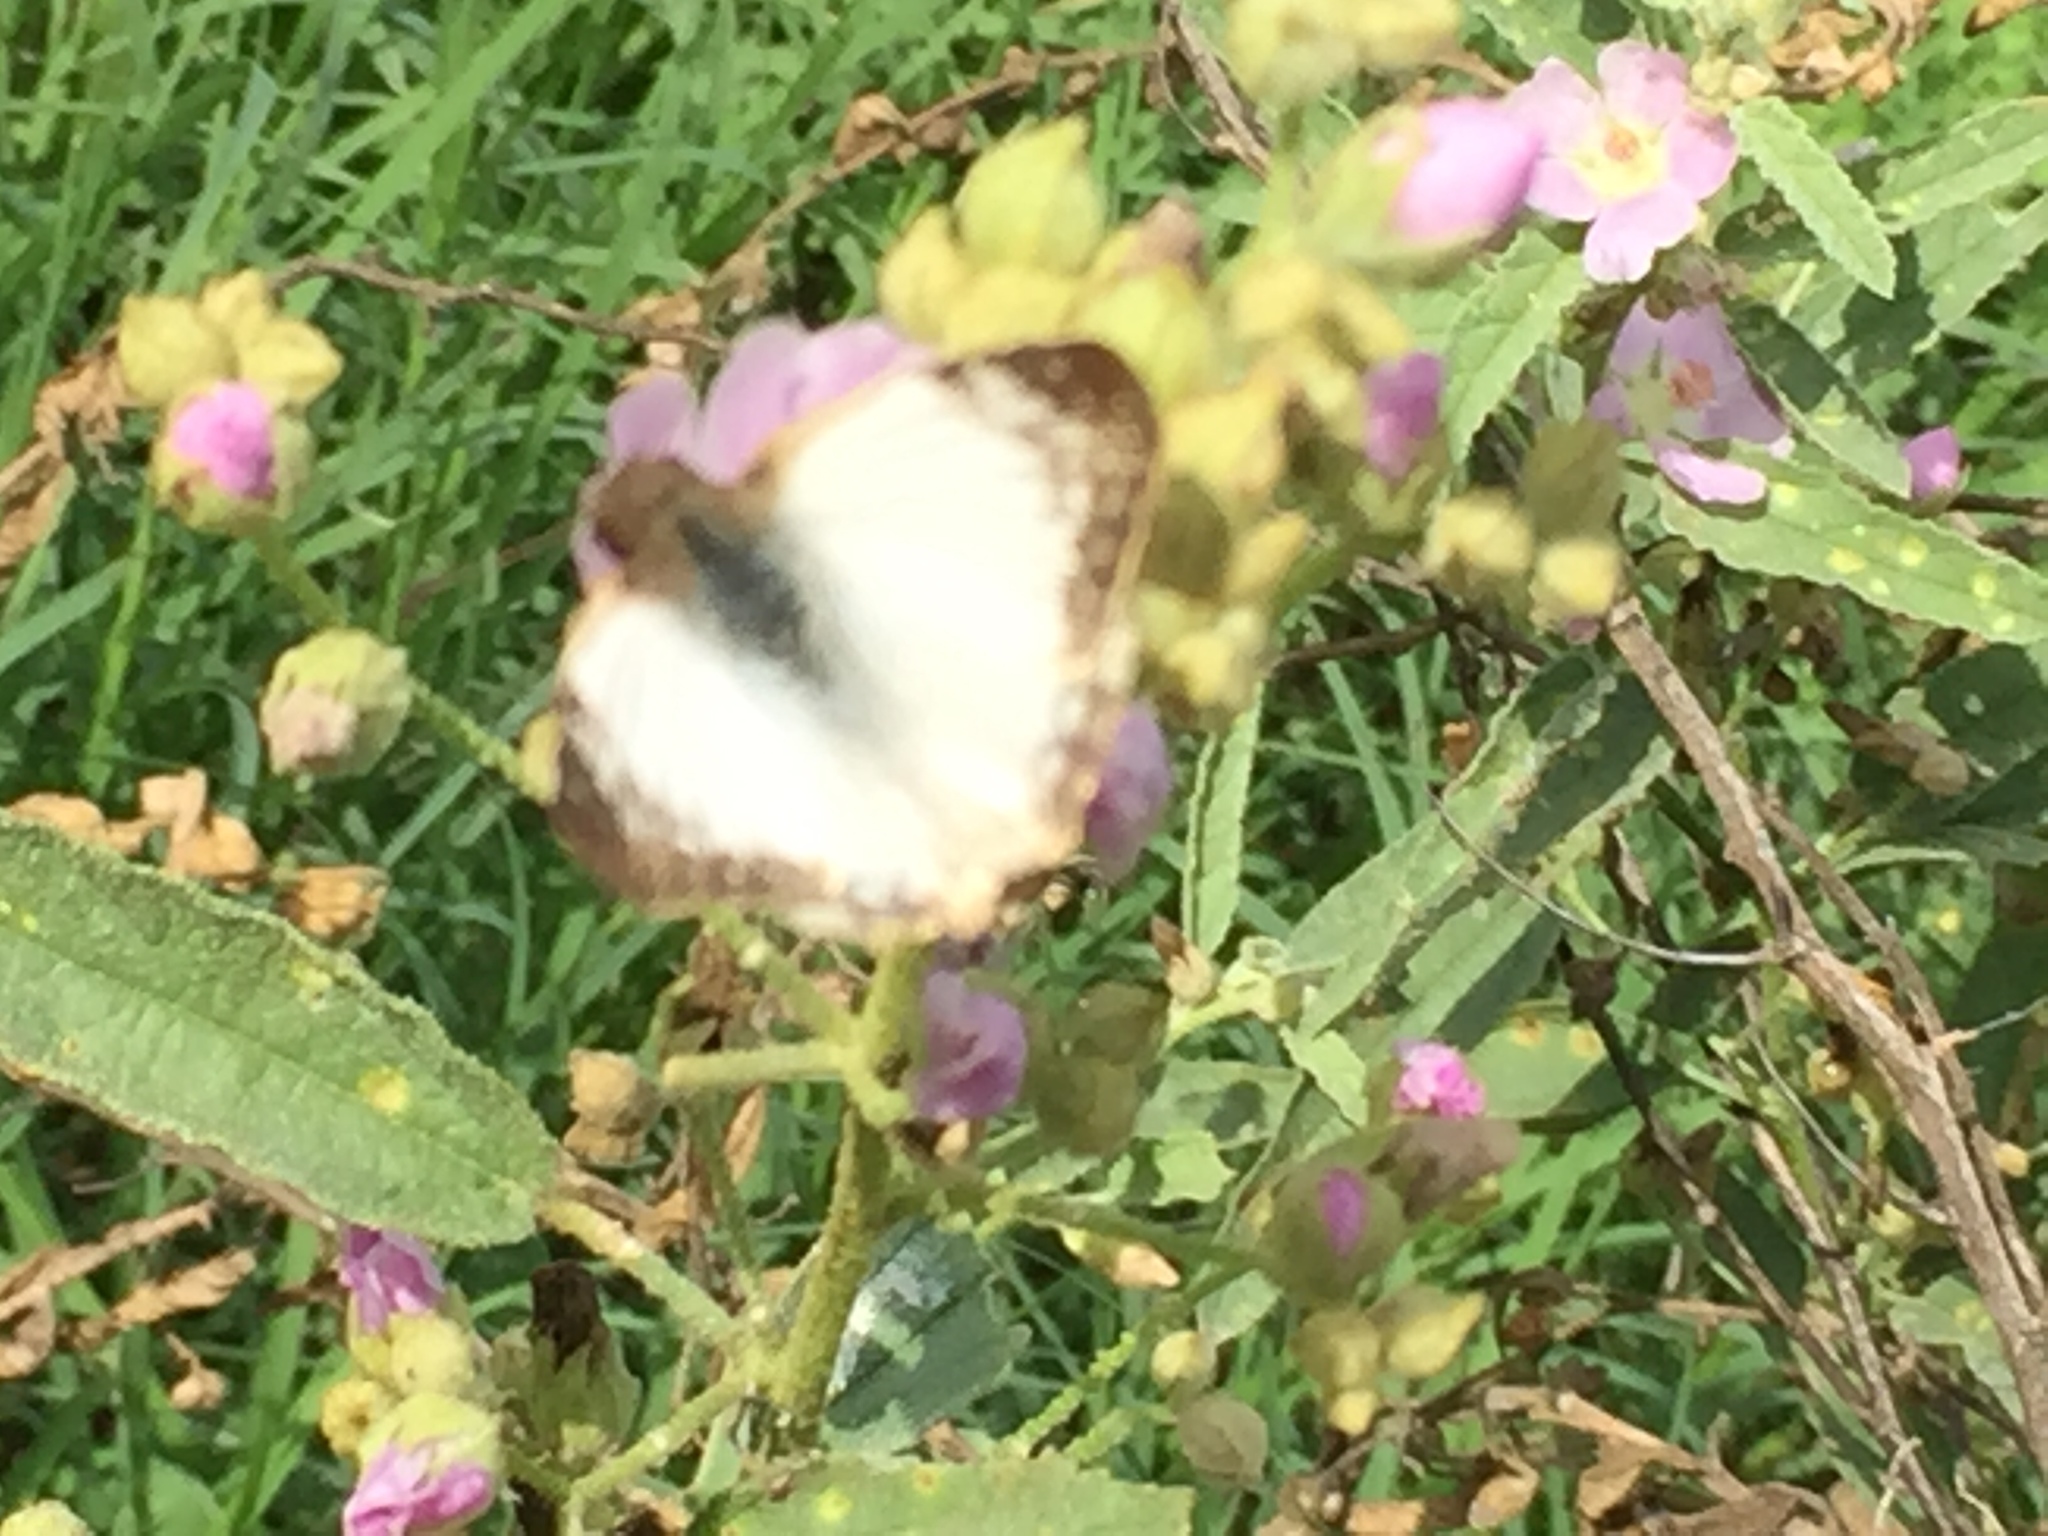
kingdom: Animalia
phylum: Arthropoda
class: Insecta
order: Lepidoptera
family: Hesperiidae
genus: Heliopetes
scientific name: Heliopetes laviana
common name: Laviana white-skipper
